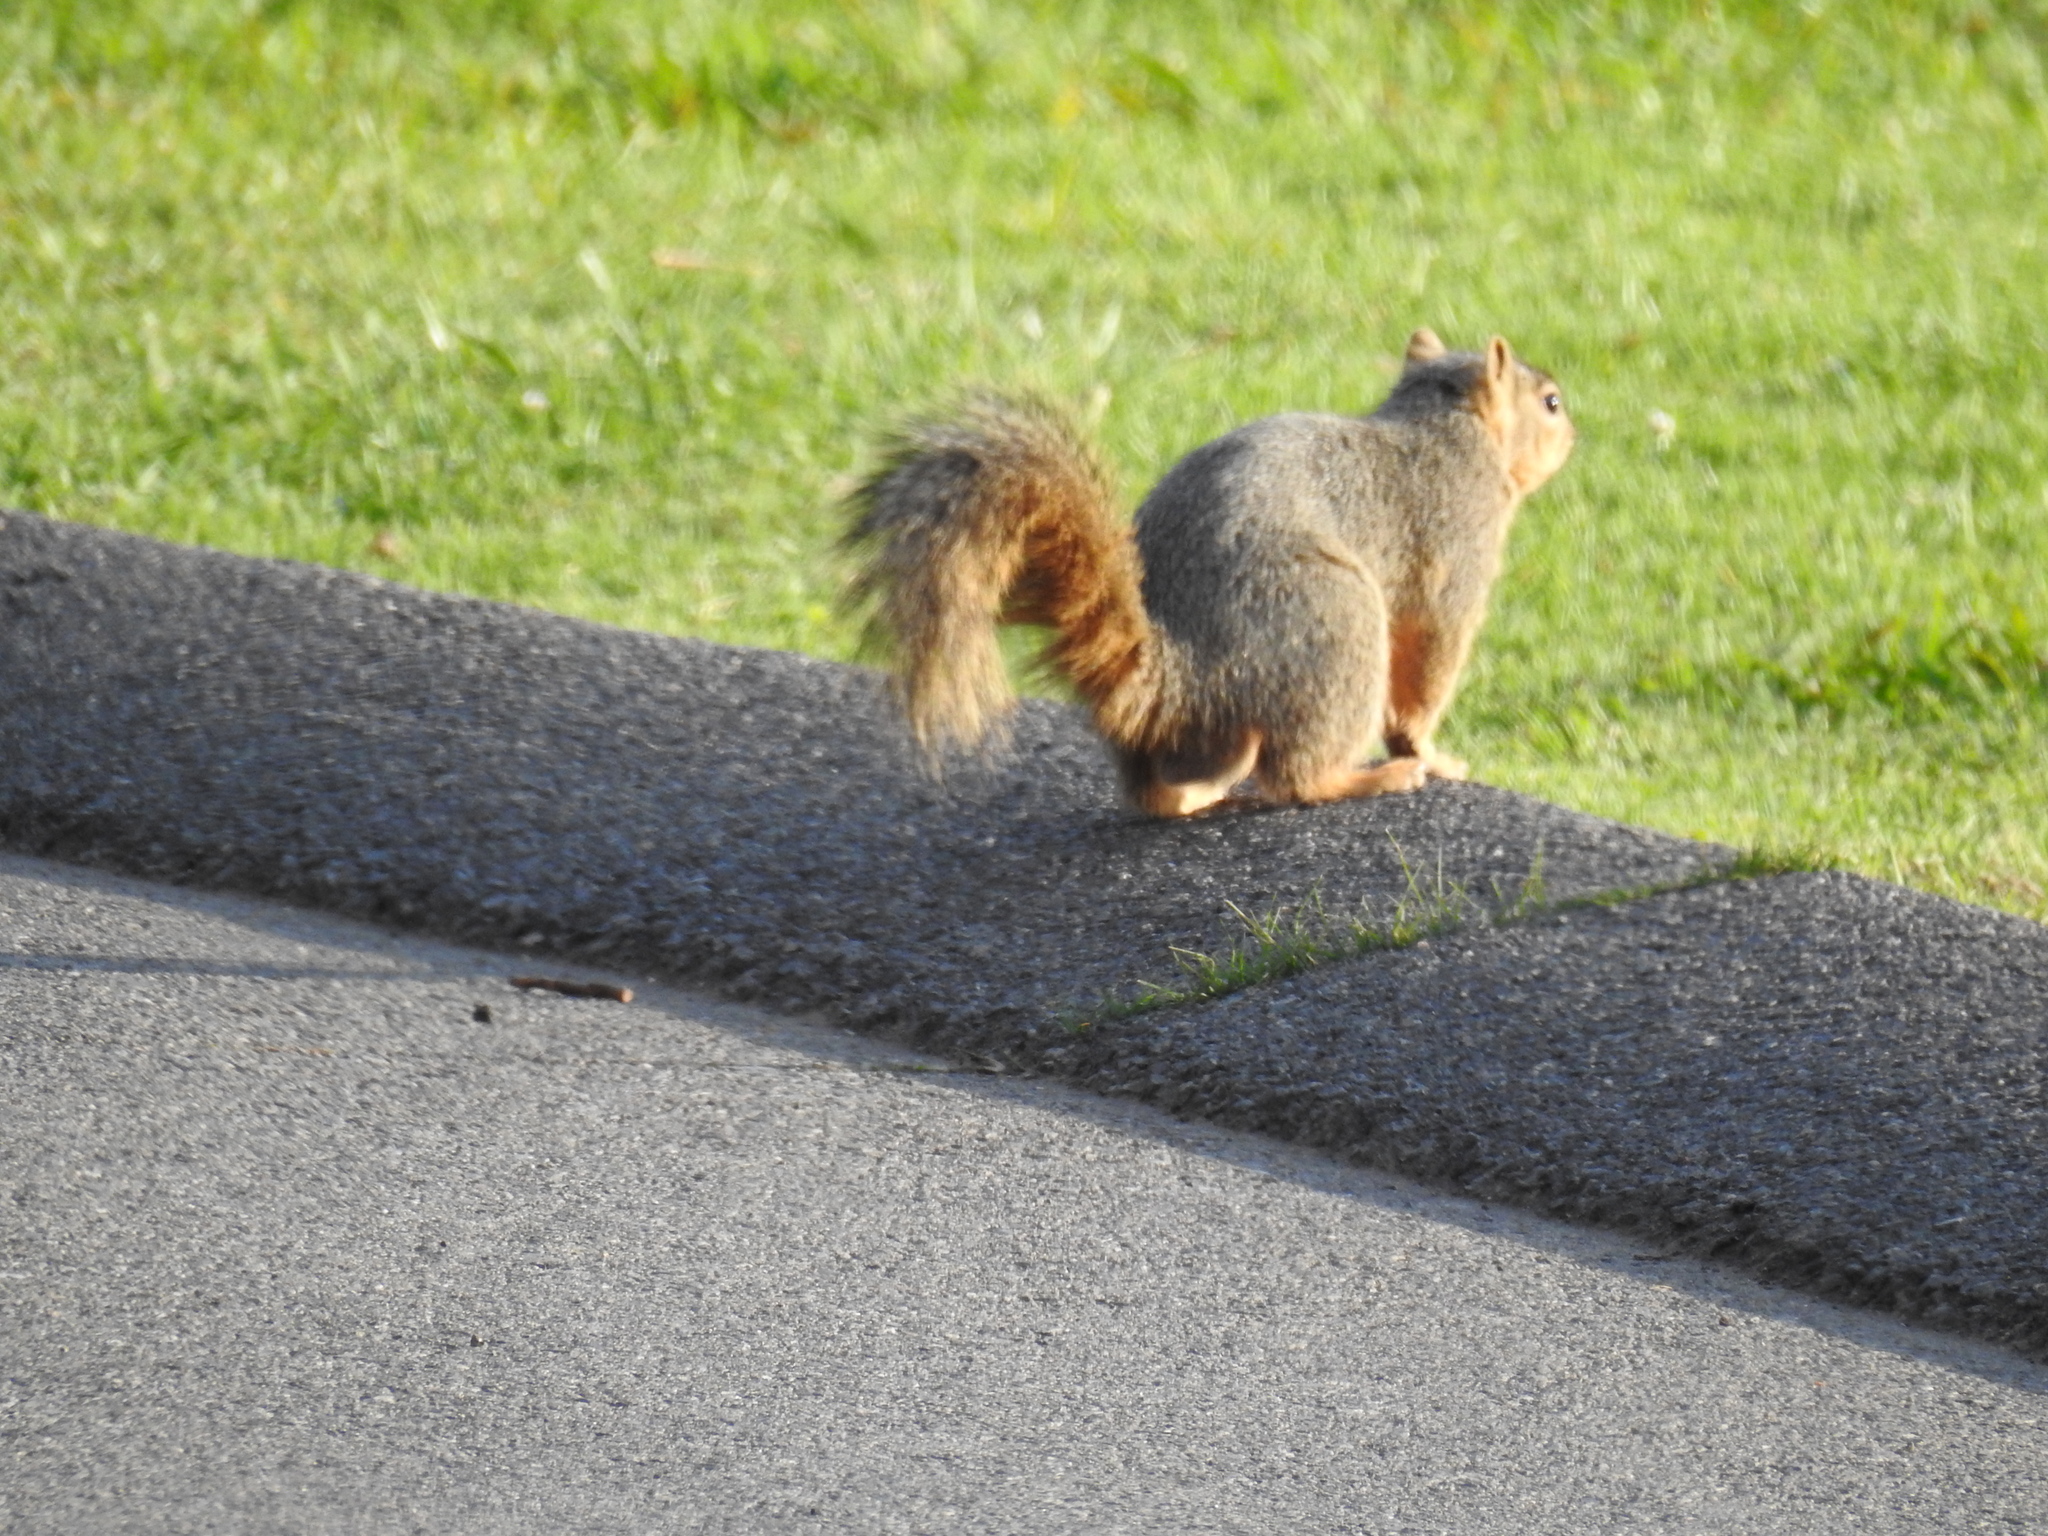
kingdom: Animalia
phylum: Chordata
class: Mammalia
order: Rodentia
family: Sciuridae
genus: Sciurus
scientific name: Sciurus niger
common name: Fox squirrel
